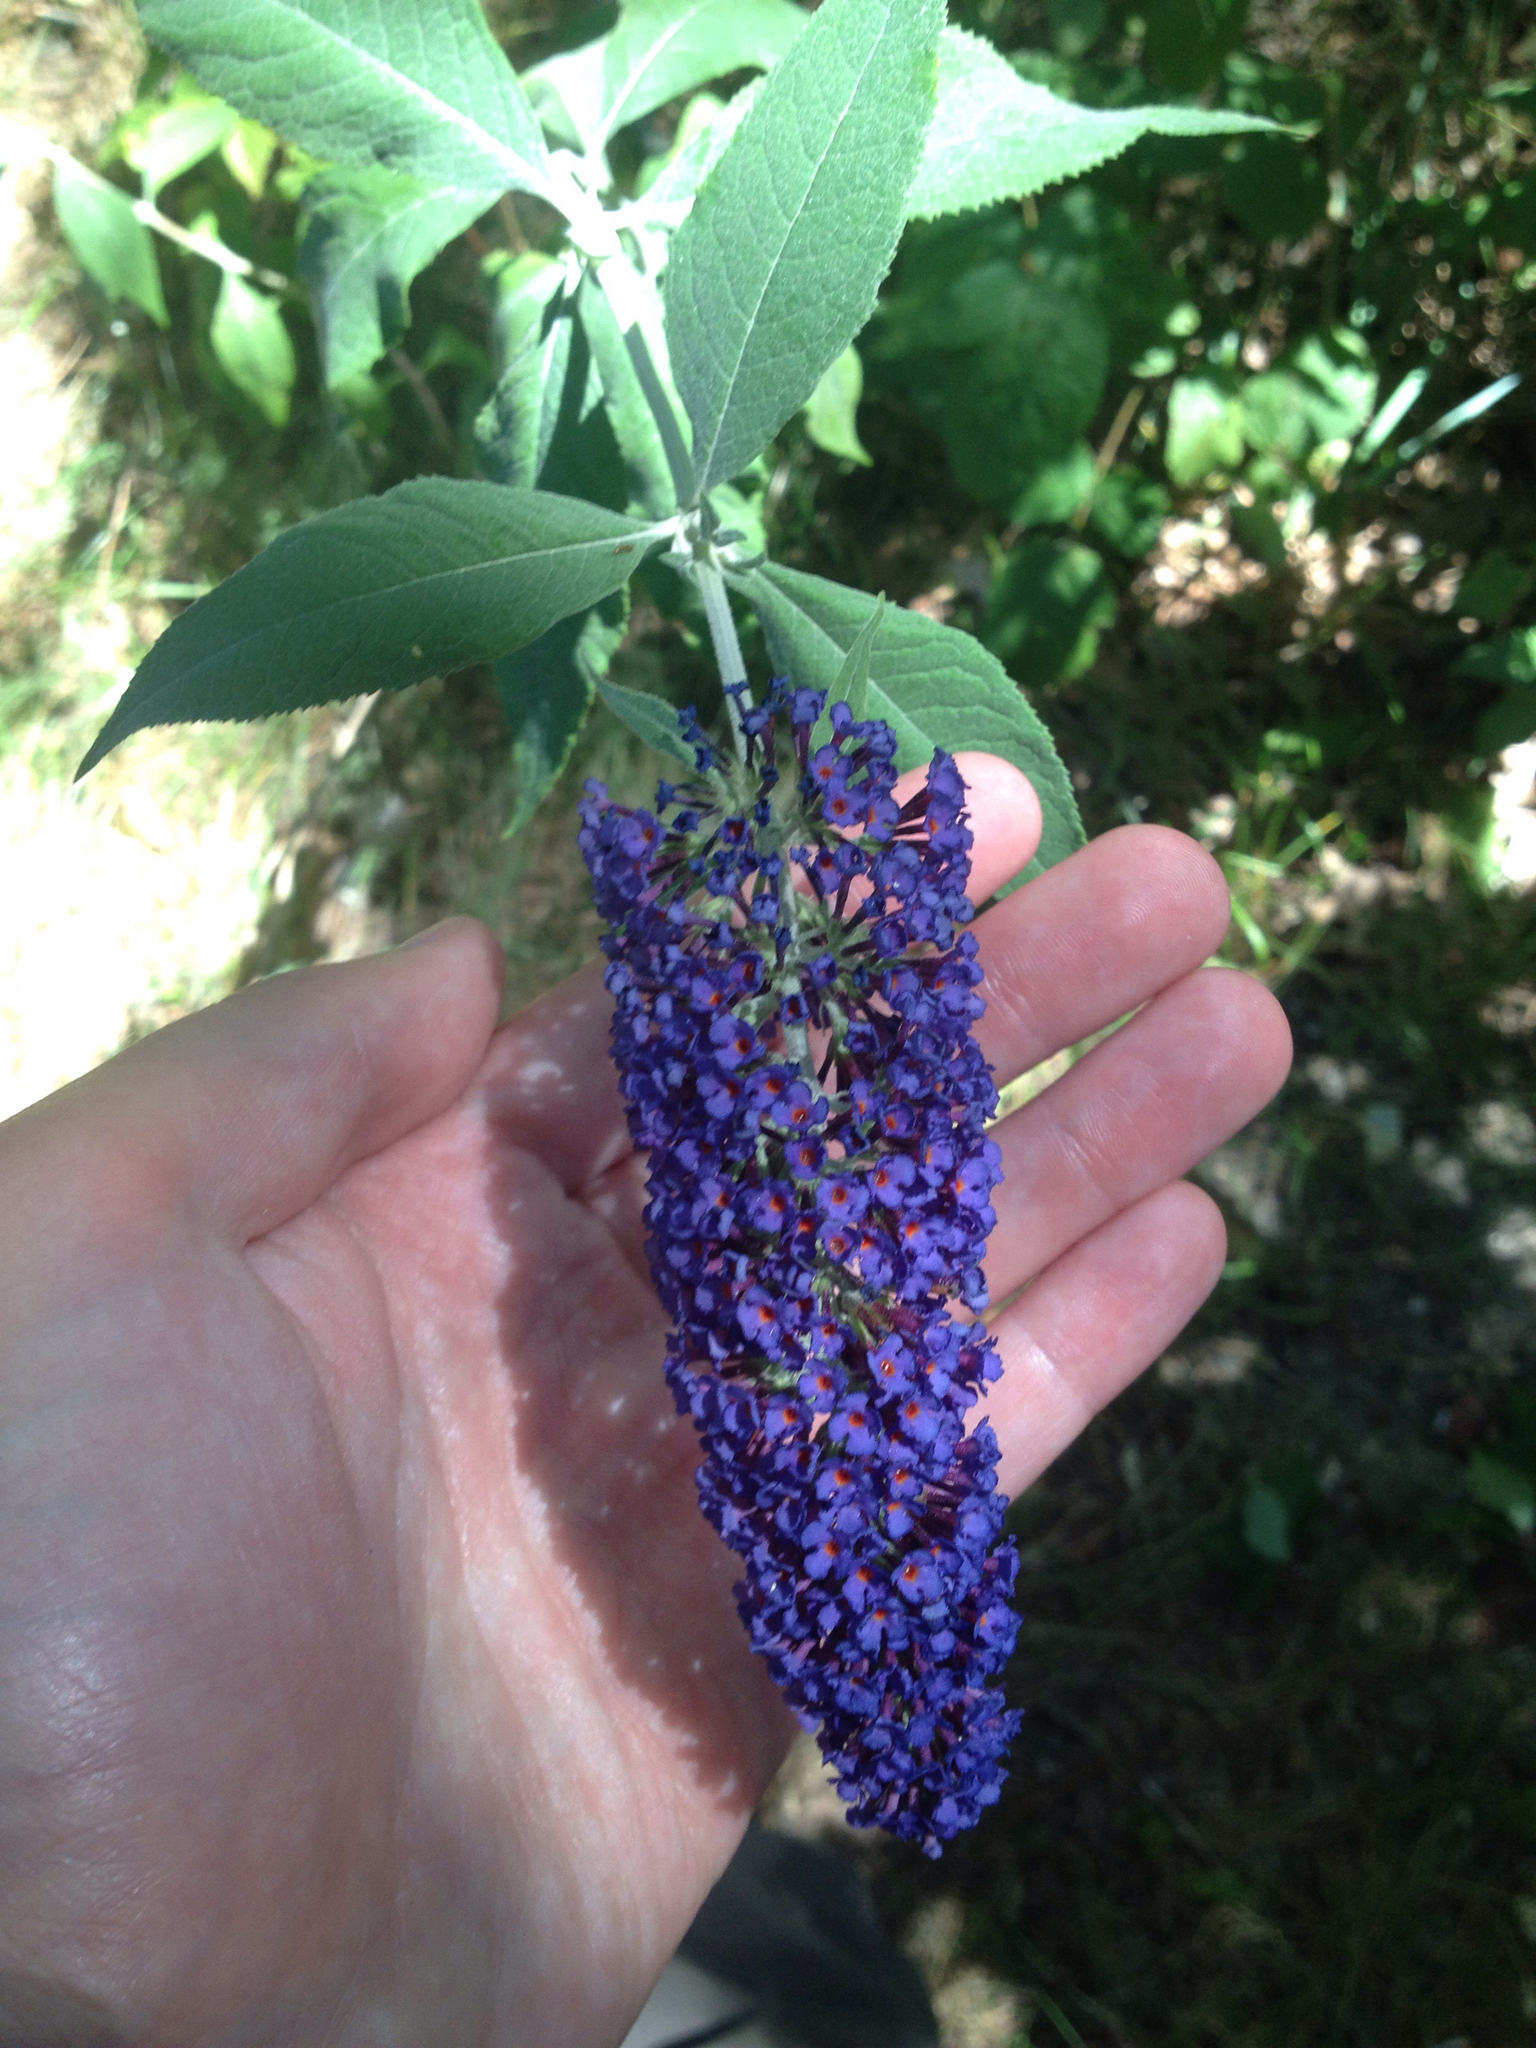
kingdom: Plantae
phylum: Tracheophyta
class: Magnoliopsida
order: Lamiales
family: Scrophulariaceae
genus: Buddleja
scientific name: Buddleja davidii
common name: Butterfly-bush
